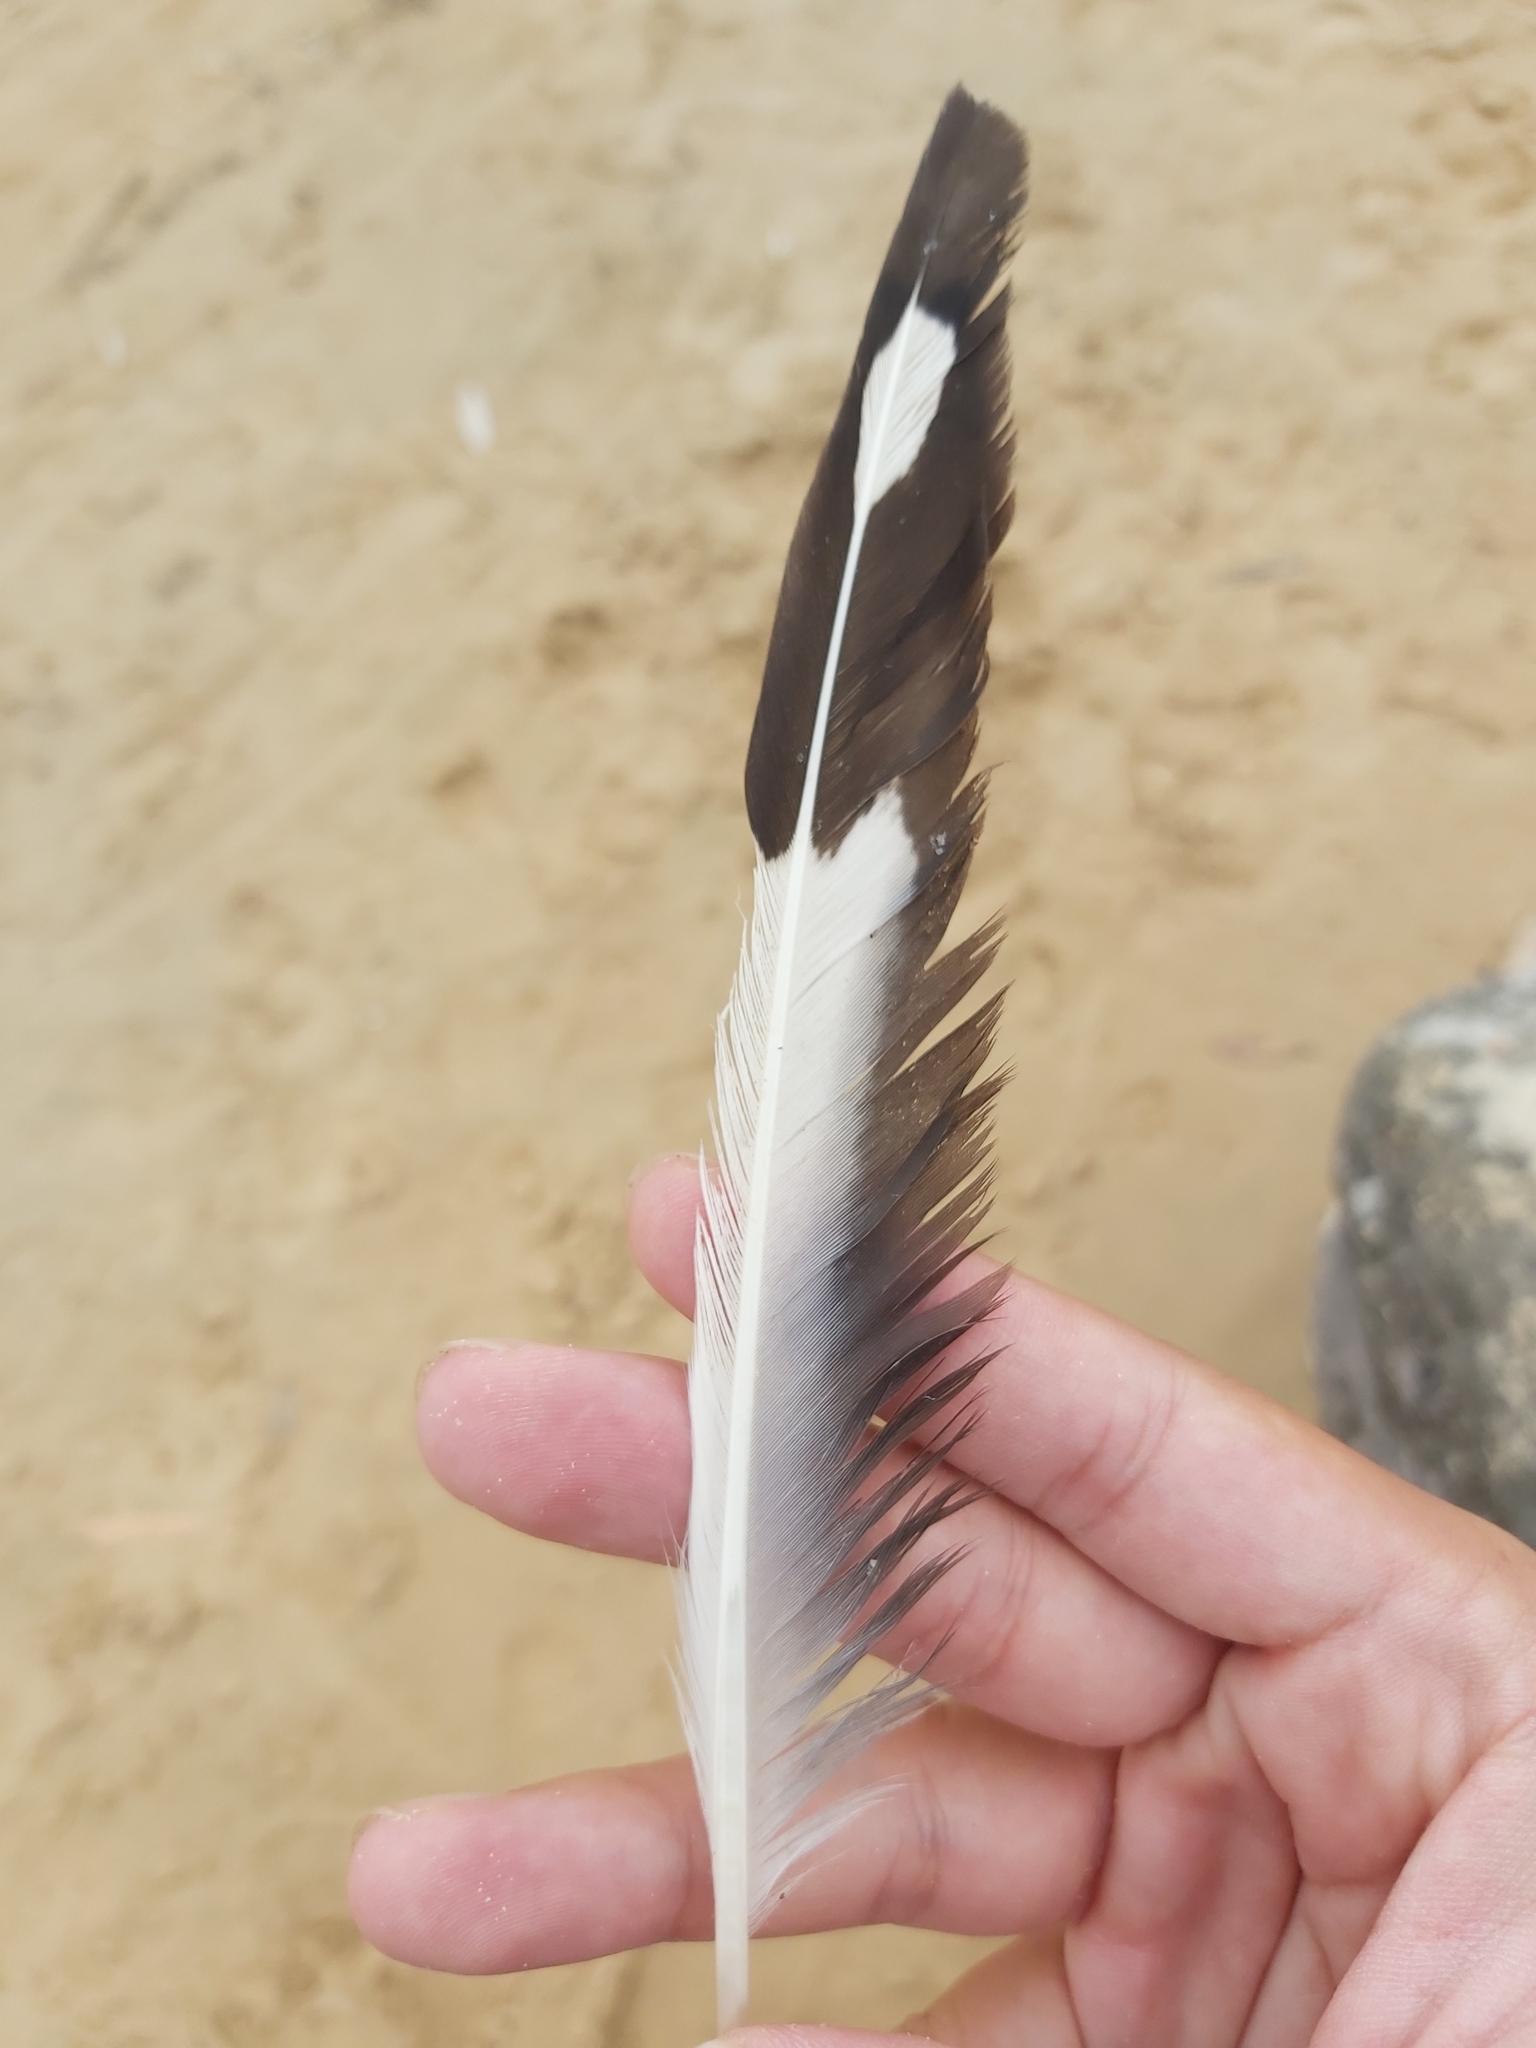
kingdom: Animalia
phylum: Chordata
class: Aves
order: Charadriiformes
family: Laridae
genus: Chroicocephalus
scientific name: Chroicocephalus novaehollandiae
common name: Silver gull
